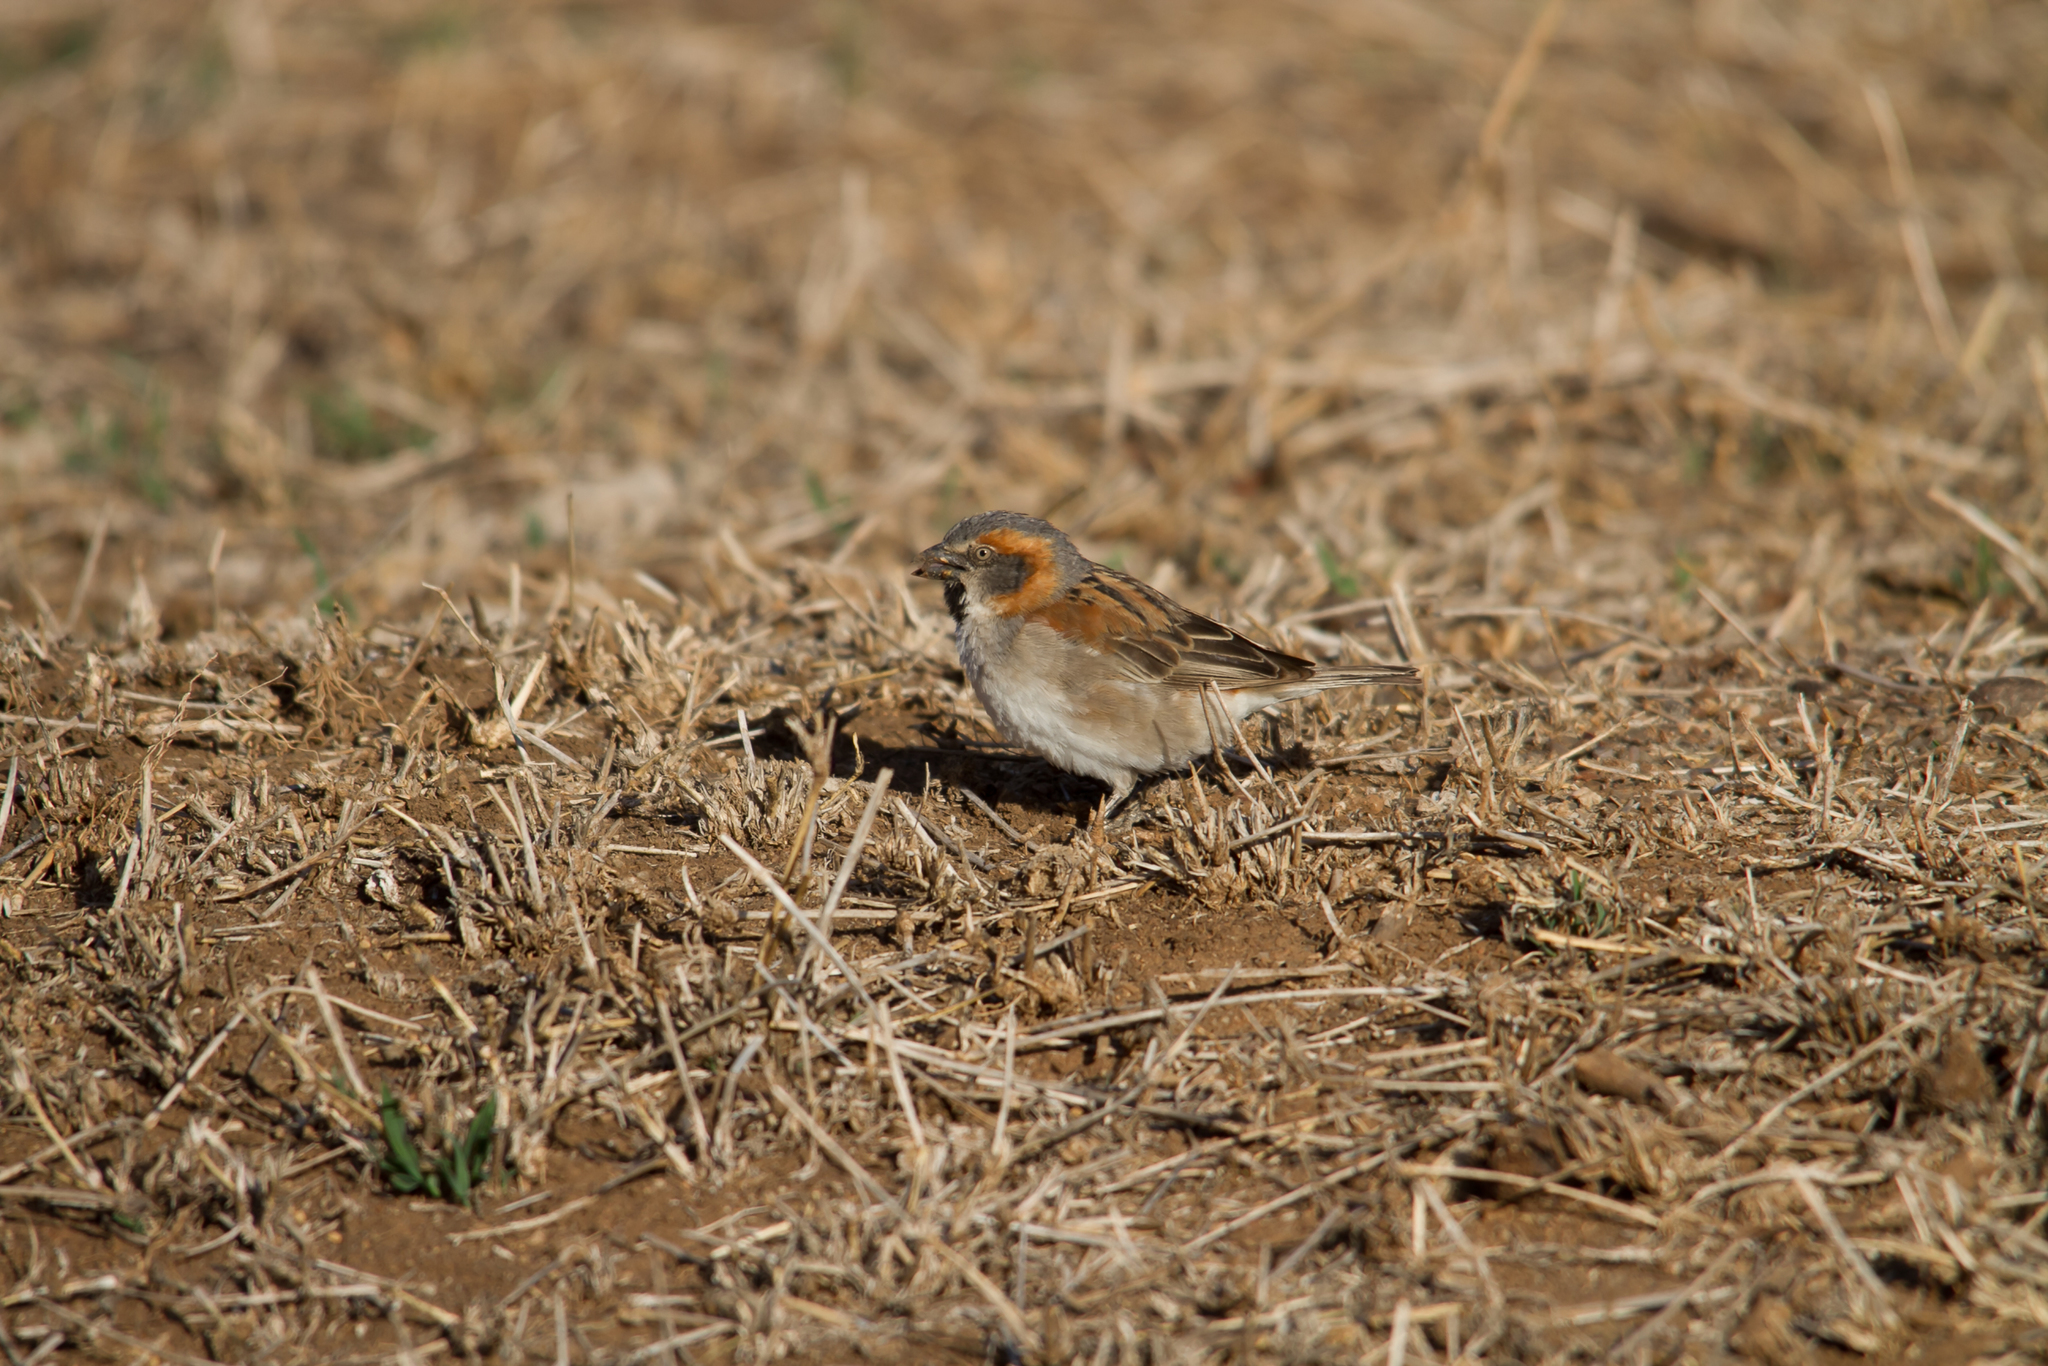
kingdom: Animalia
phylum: Chordata
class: Aves
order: Passeriformes
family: Passeridae
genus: Passer
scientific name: Passer rufocinctus
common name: Kenya sparrow
